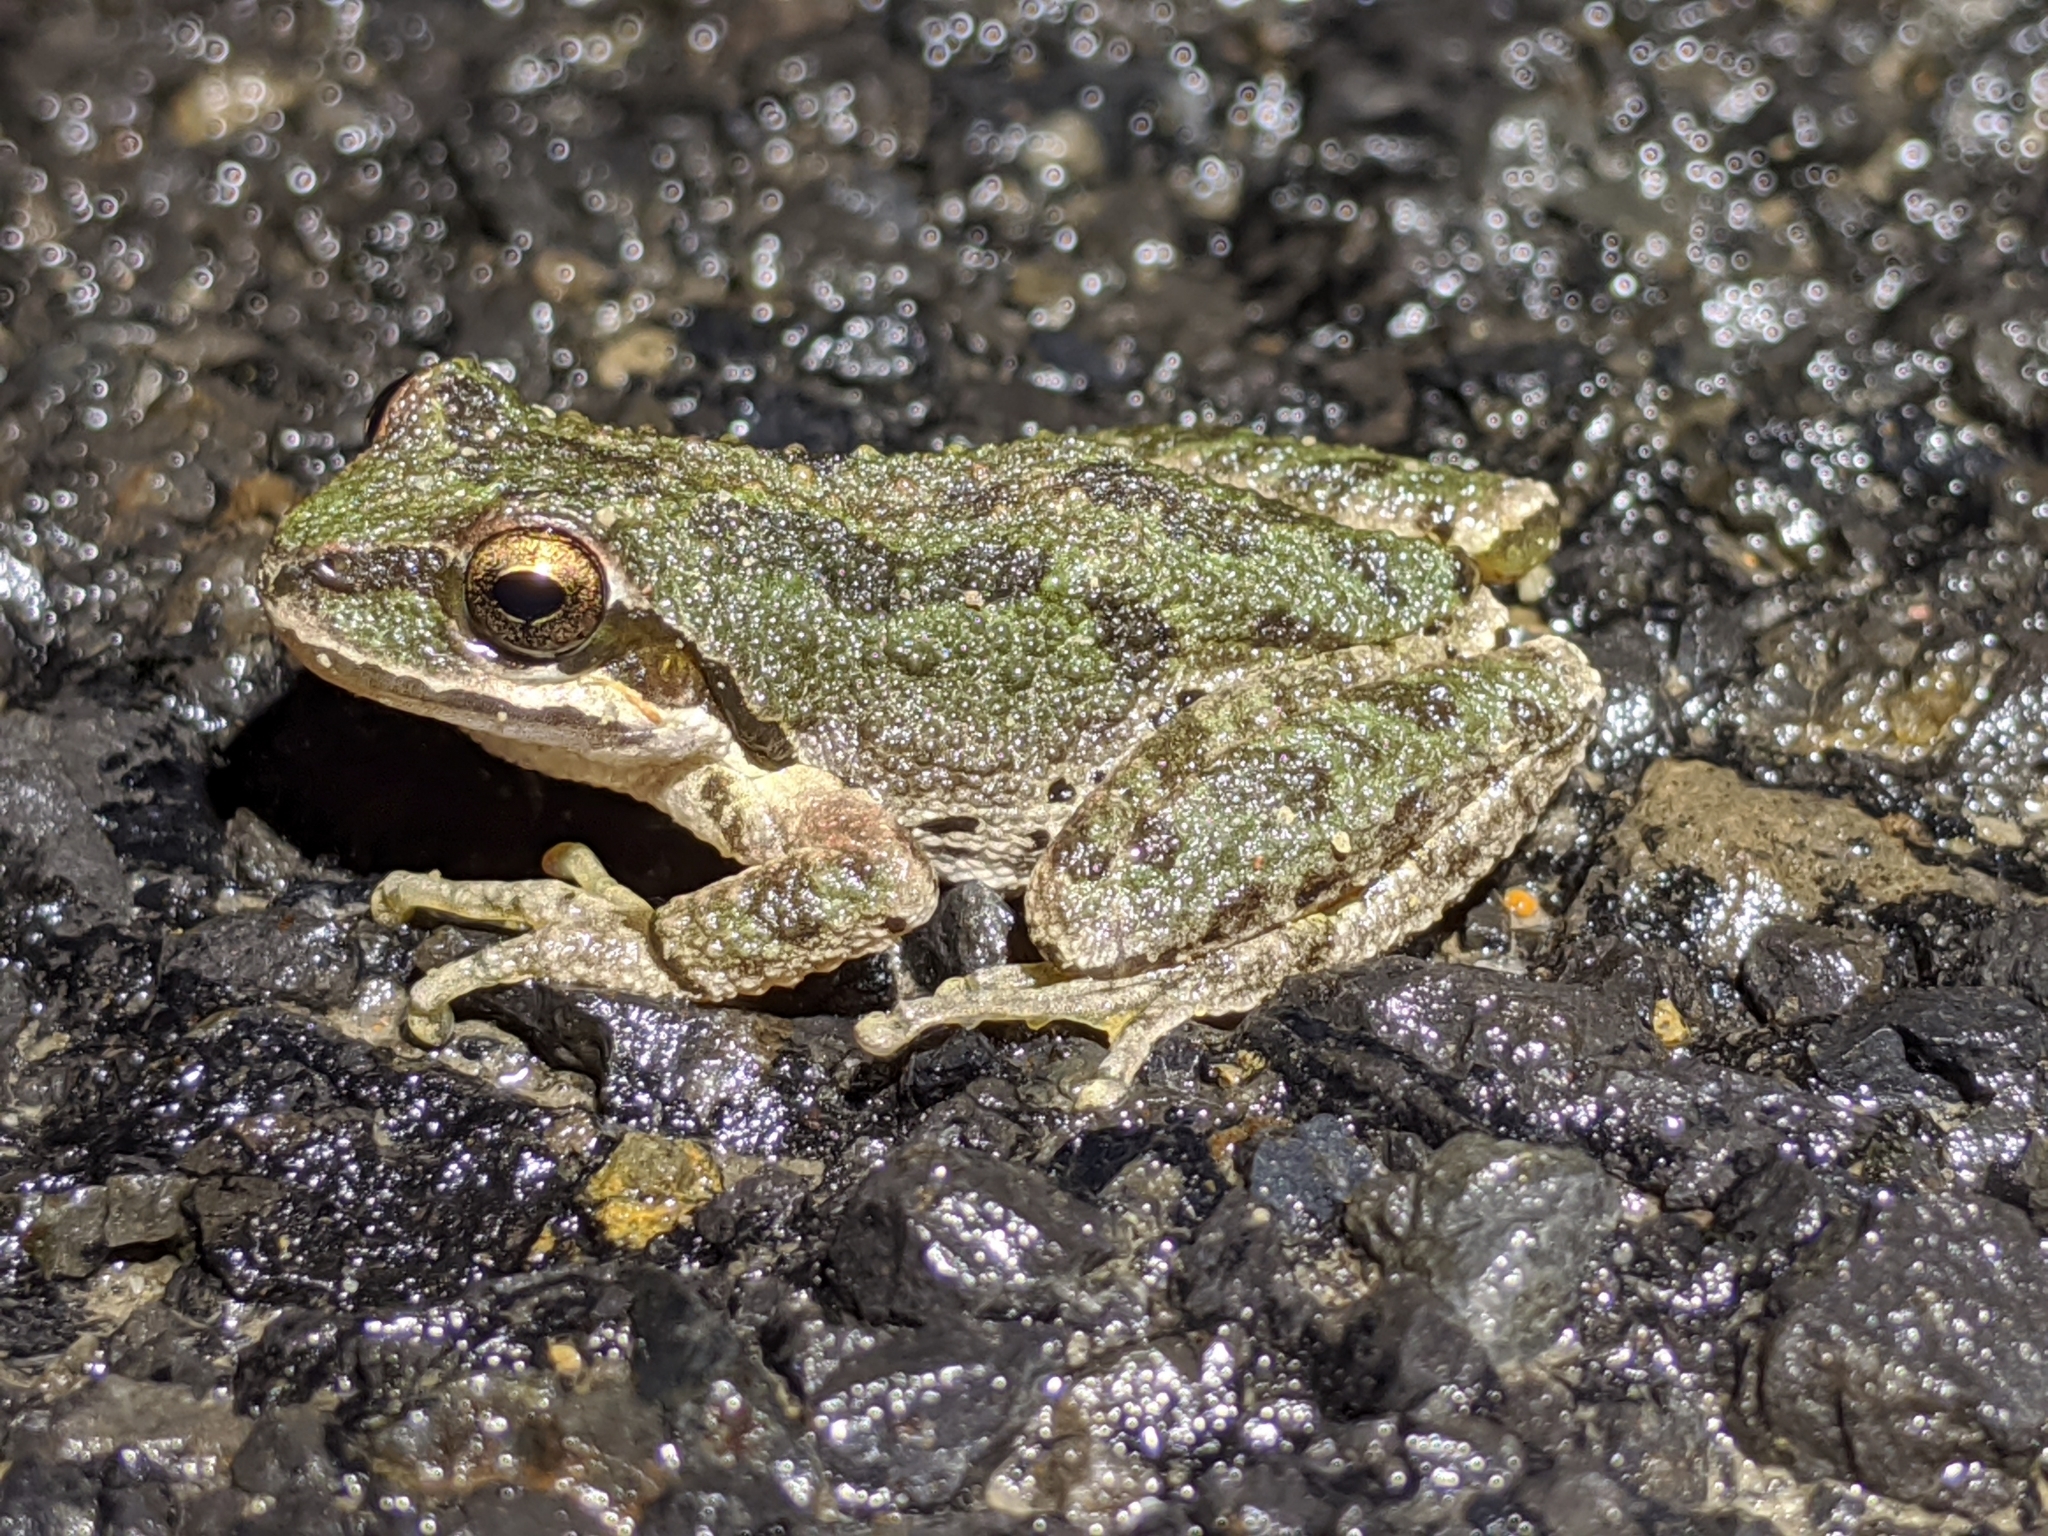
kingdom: Animalia
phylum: Chordata
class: Amphibia
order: Anura
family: Hylidae
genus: Pseudacris
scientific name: Pseudacris regilla
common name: Pacific chorus frog
